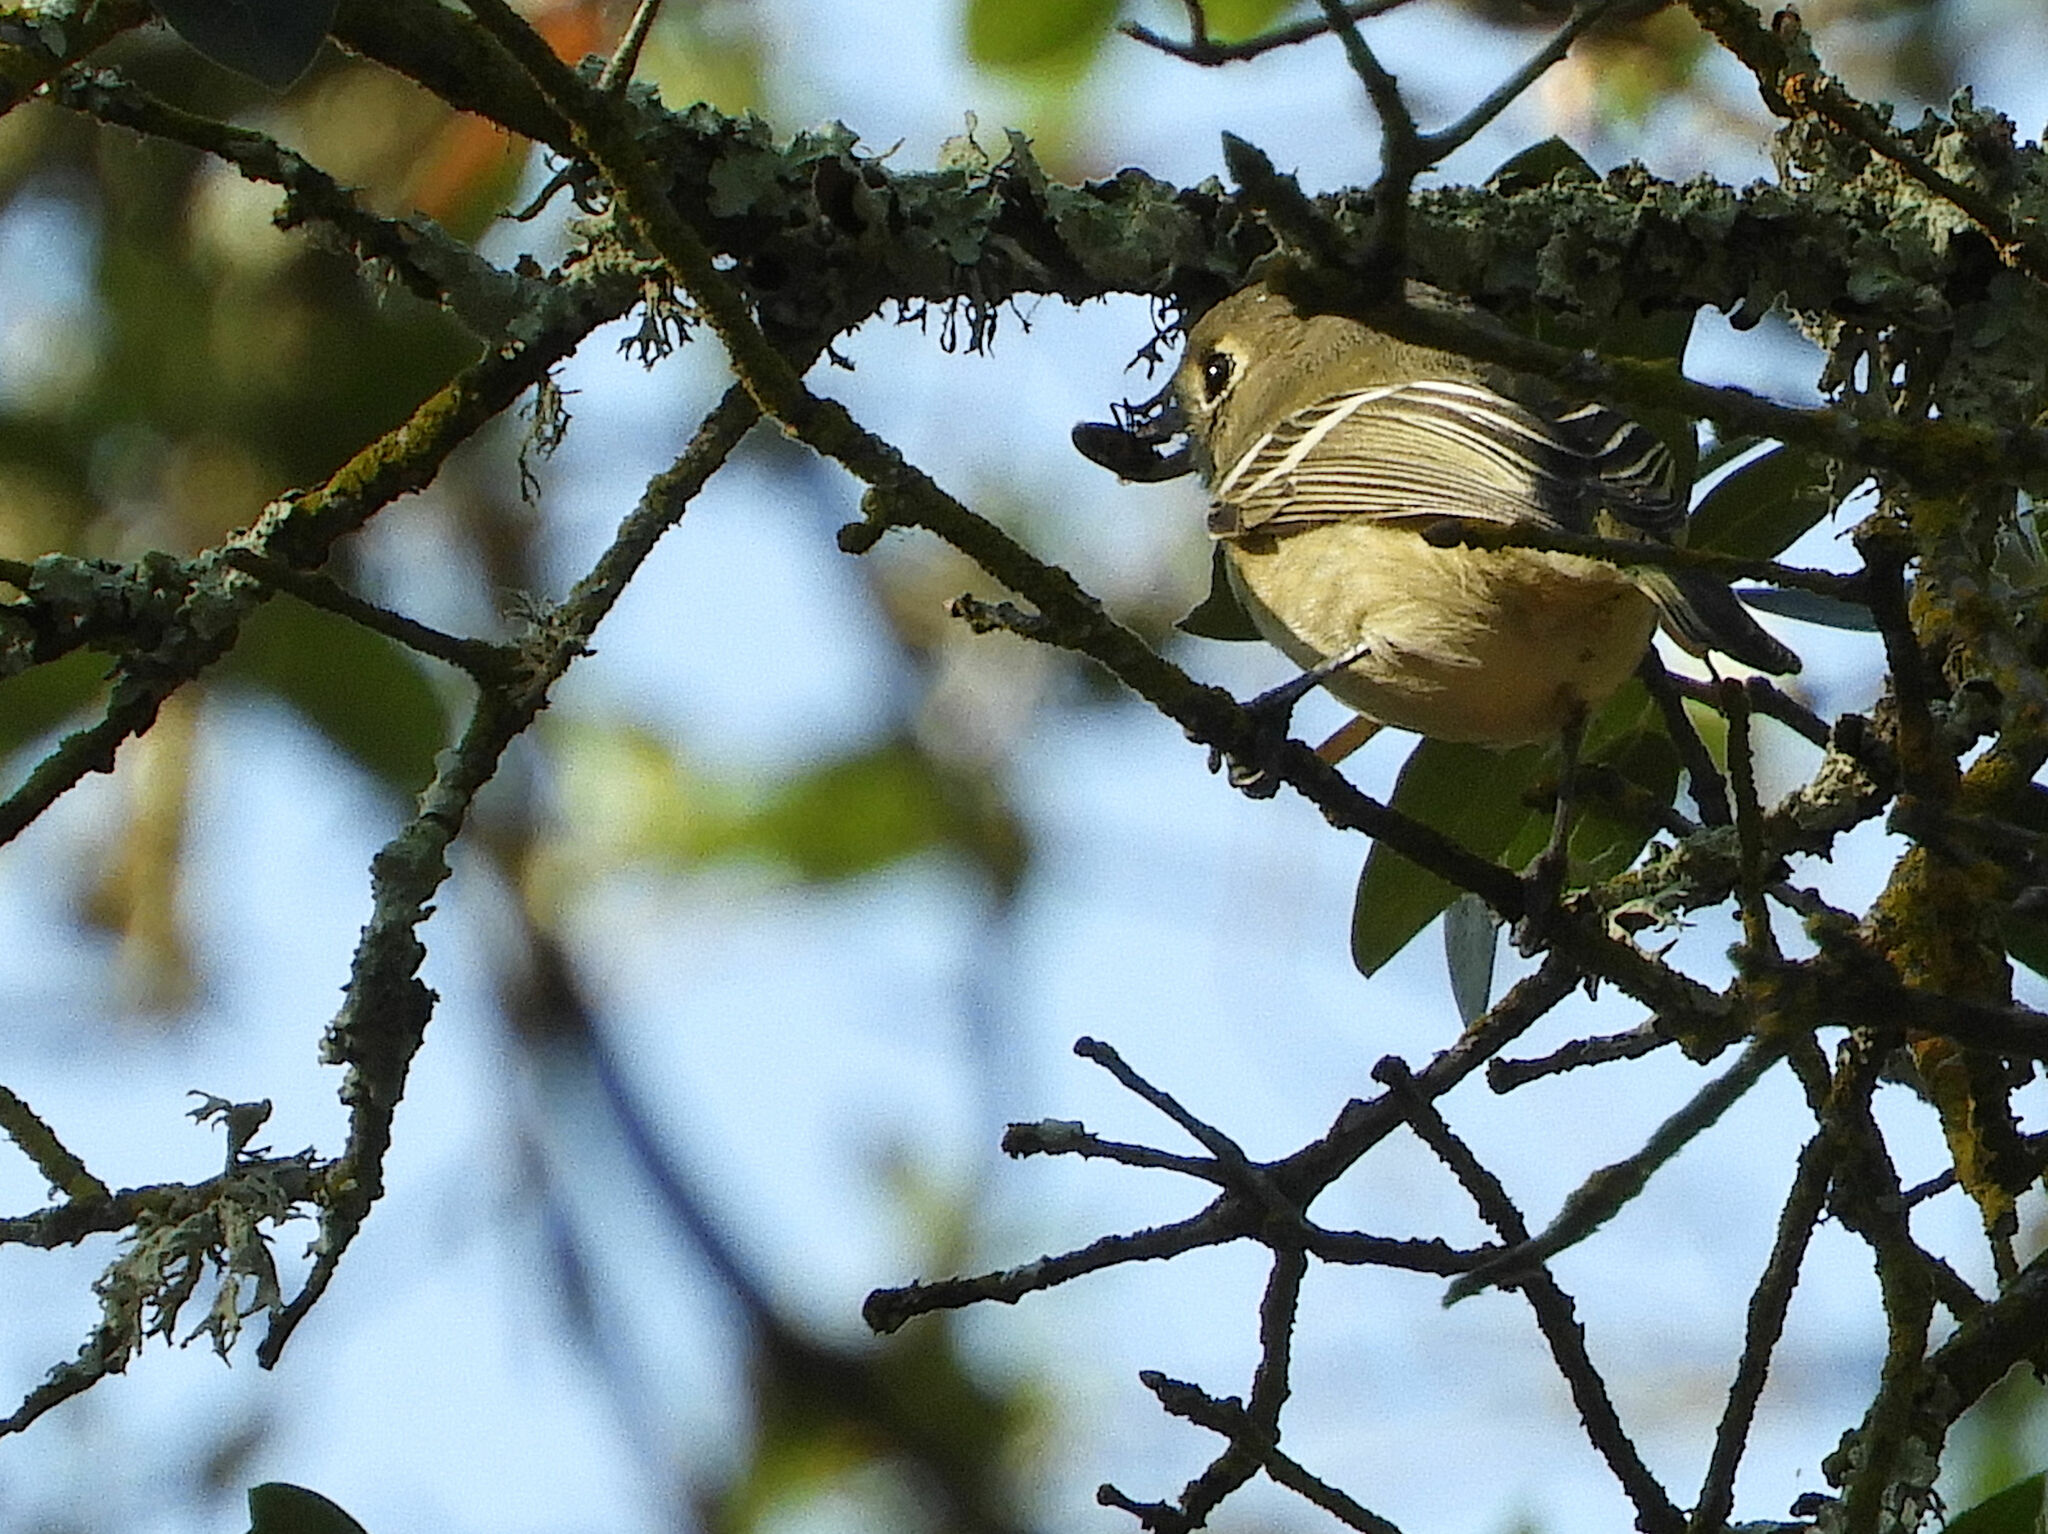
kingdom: Animalia
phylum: Chordata
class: Aves
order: Passeriformes
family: Regulidae
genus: Regulus
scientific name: Regulus calendula
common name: Ruby-crowned kinglet
